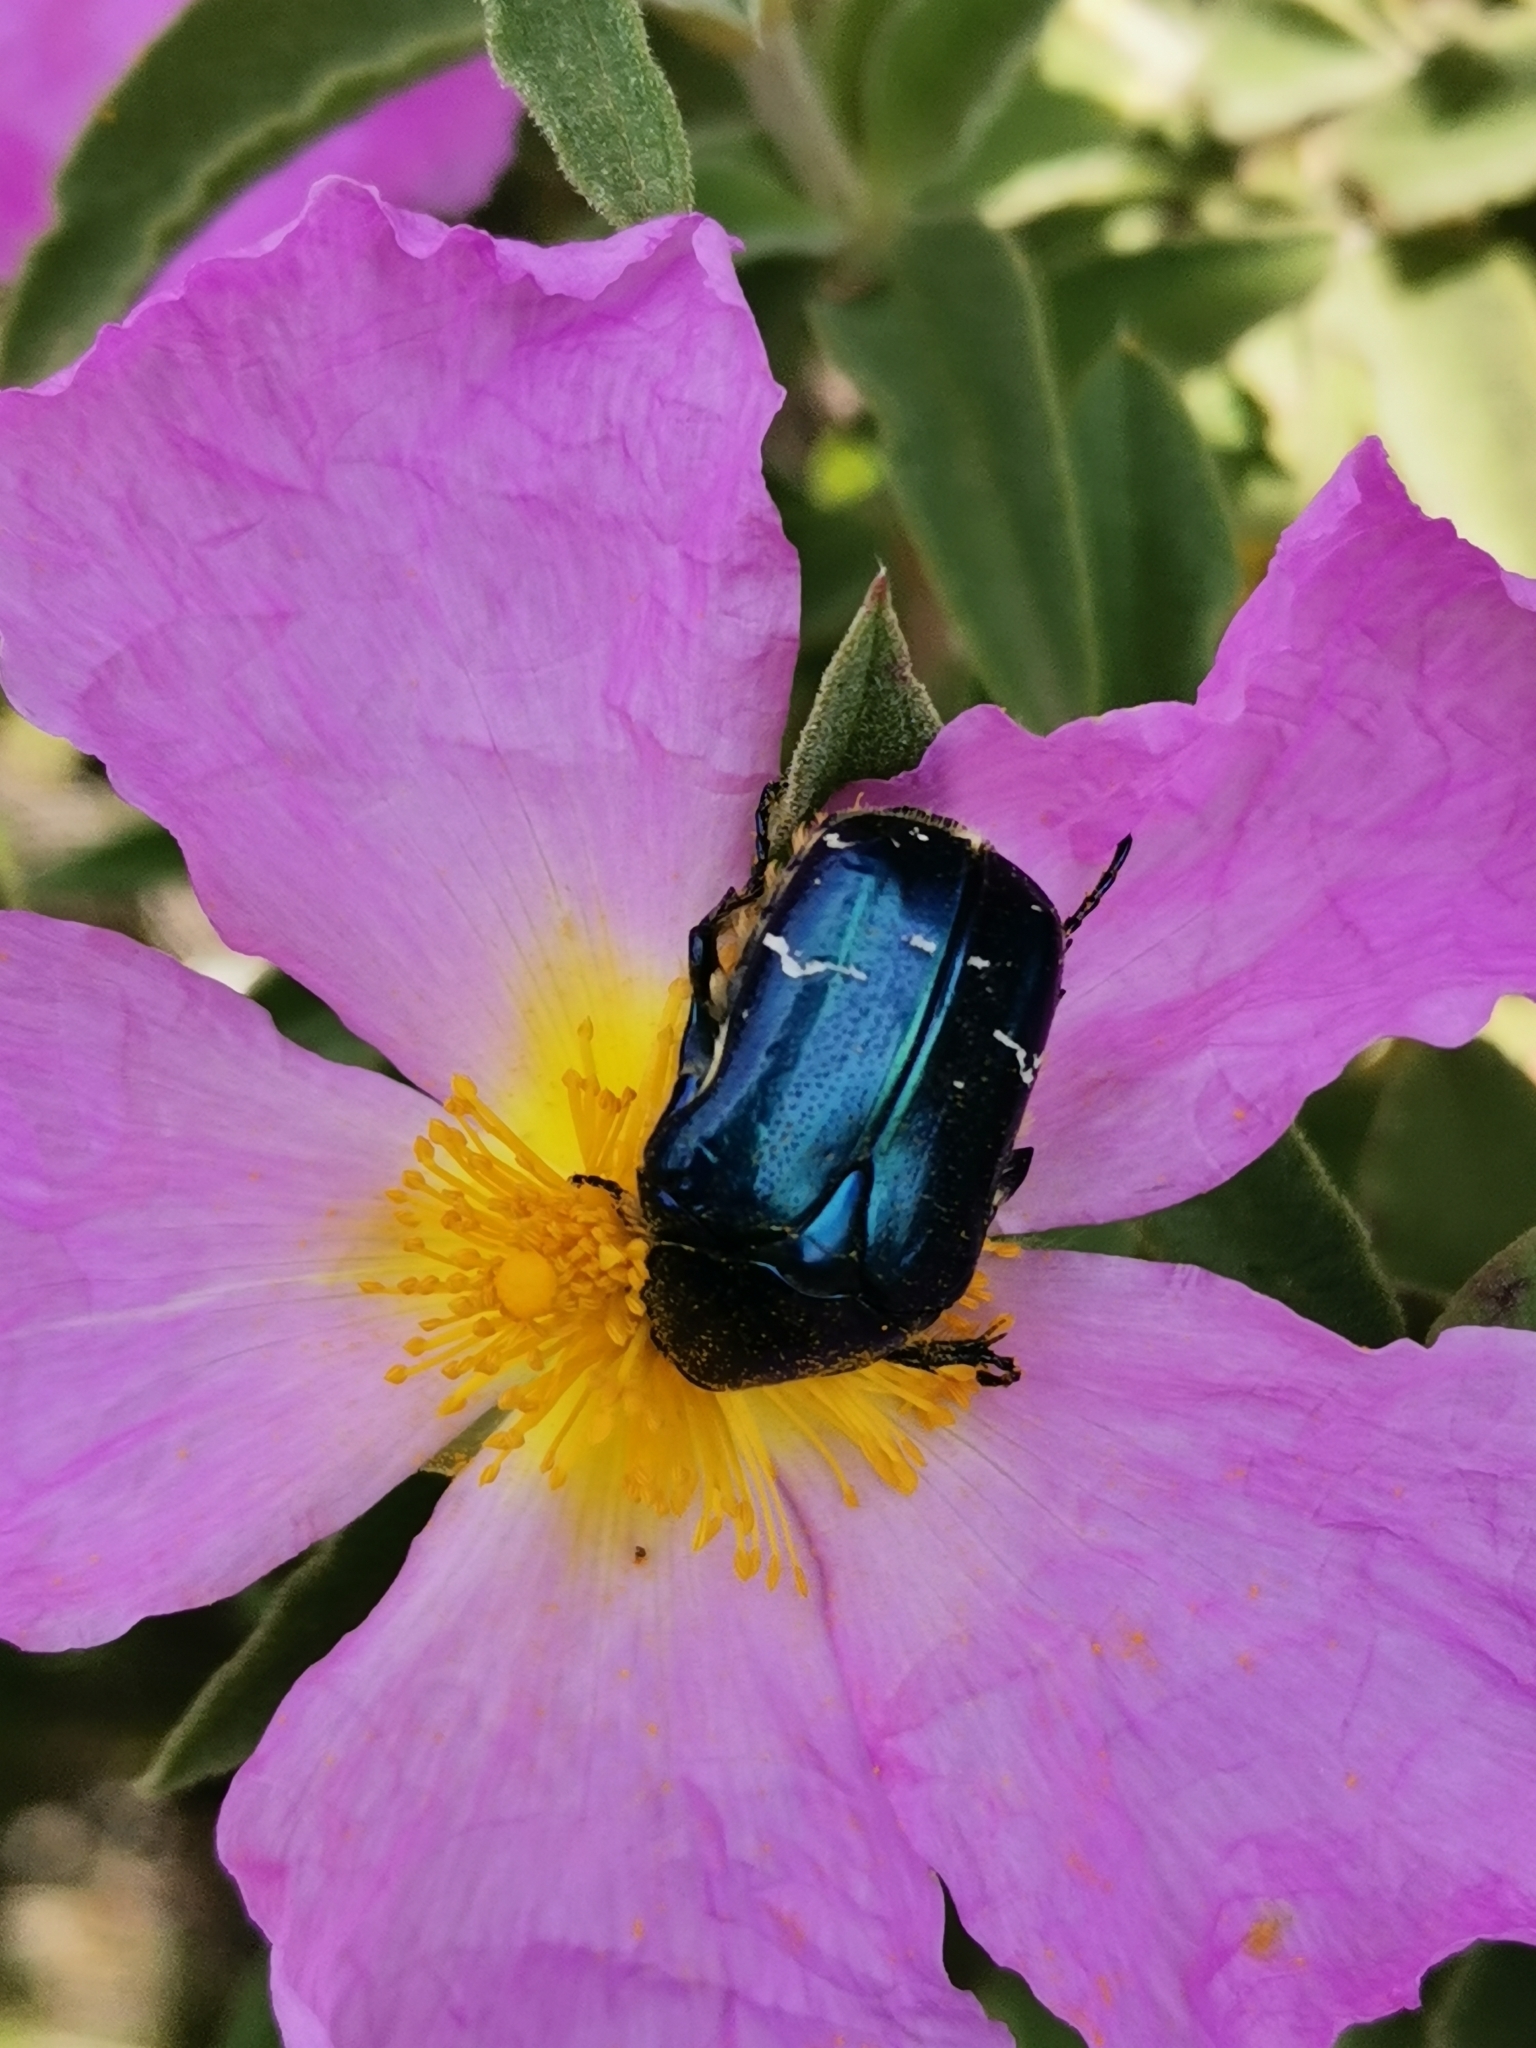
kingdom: Animalia
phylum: Arthropoda
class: Insecta
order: Coleoptera
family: Scarabaeidae
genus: Cetonia
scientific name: Cetonia aurata
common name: Rose chafer
